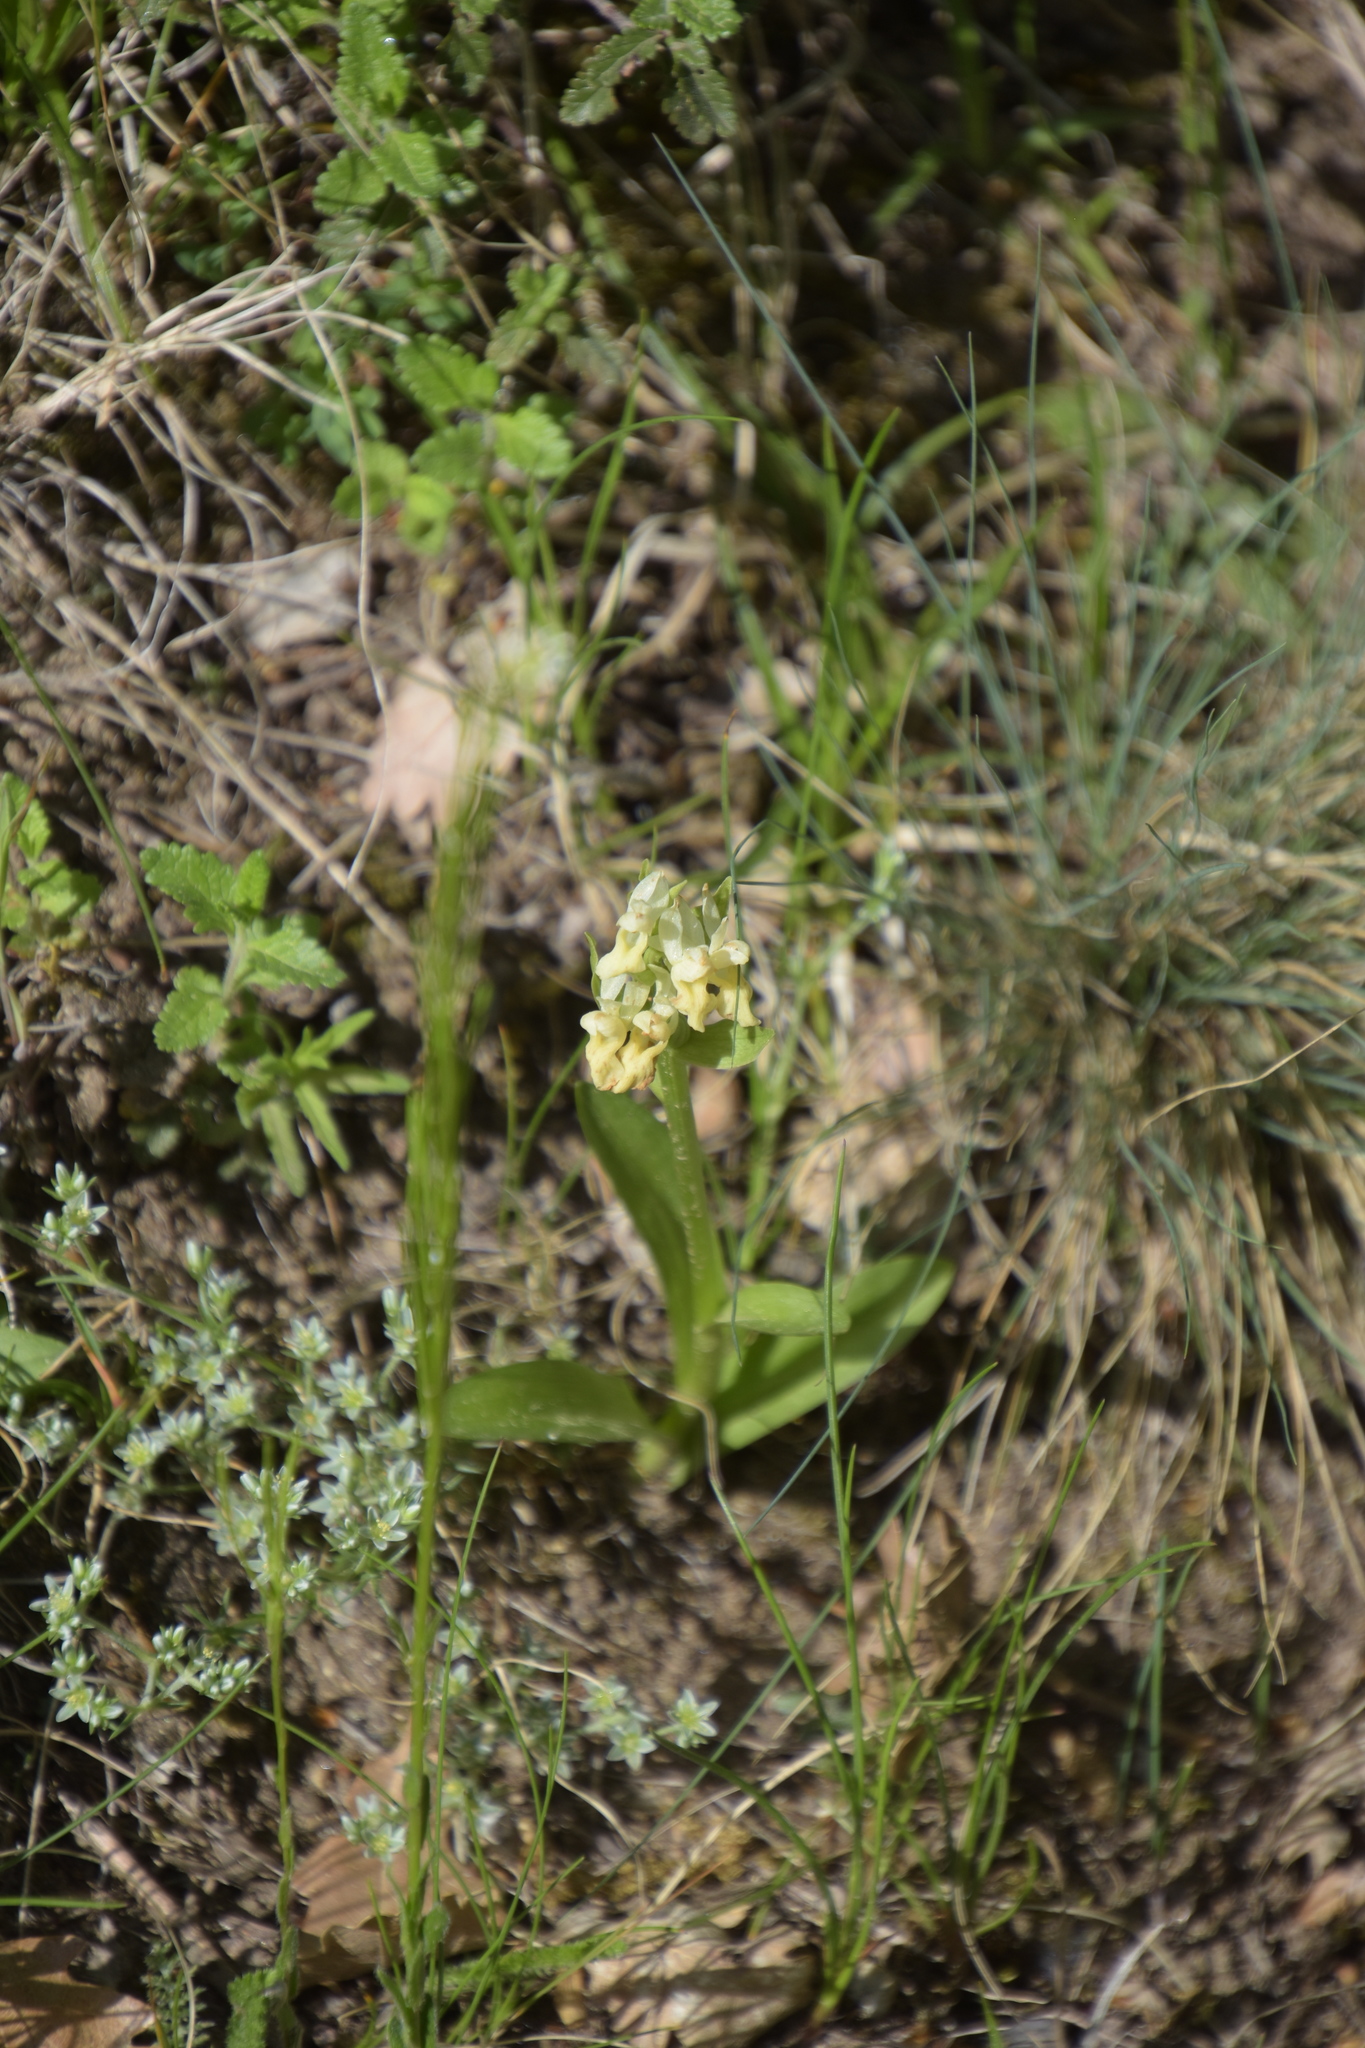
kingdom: Plantae
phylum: Tracheophyta
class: Liliopsida
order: Asparagales
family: Orchidaceae
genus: Dactylorhiza
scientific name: Dactylorhiza sambucina
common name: Elder-flowered orchid
